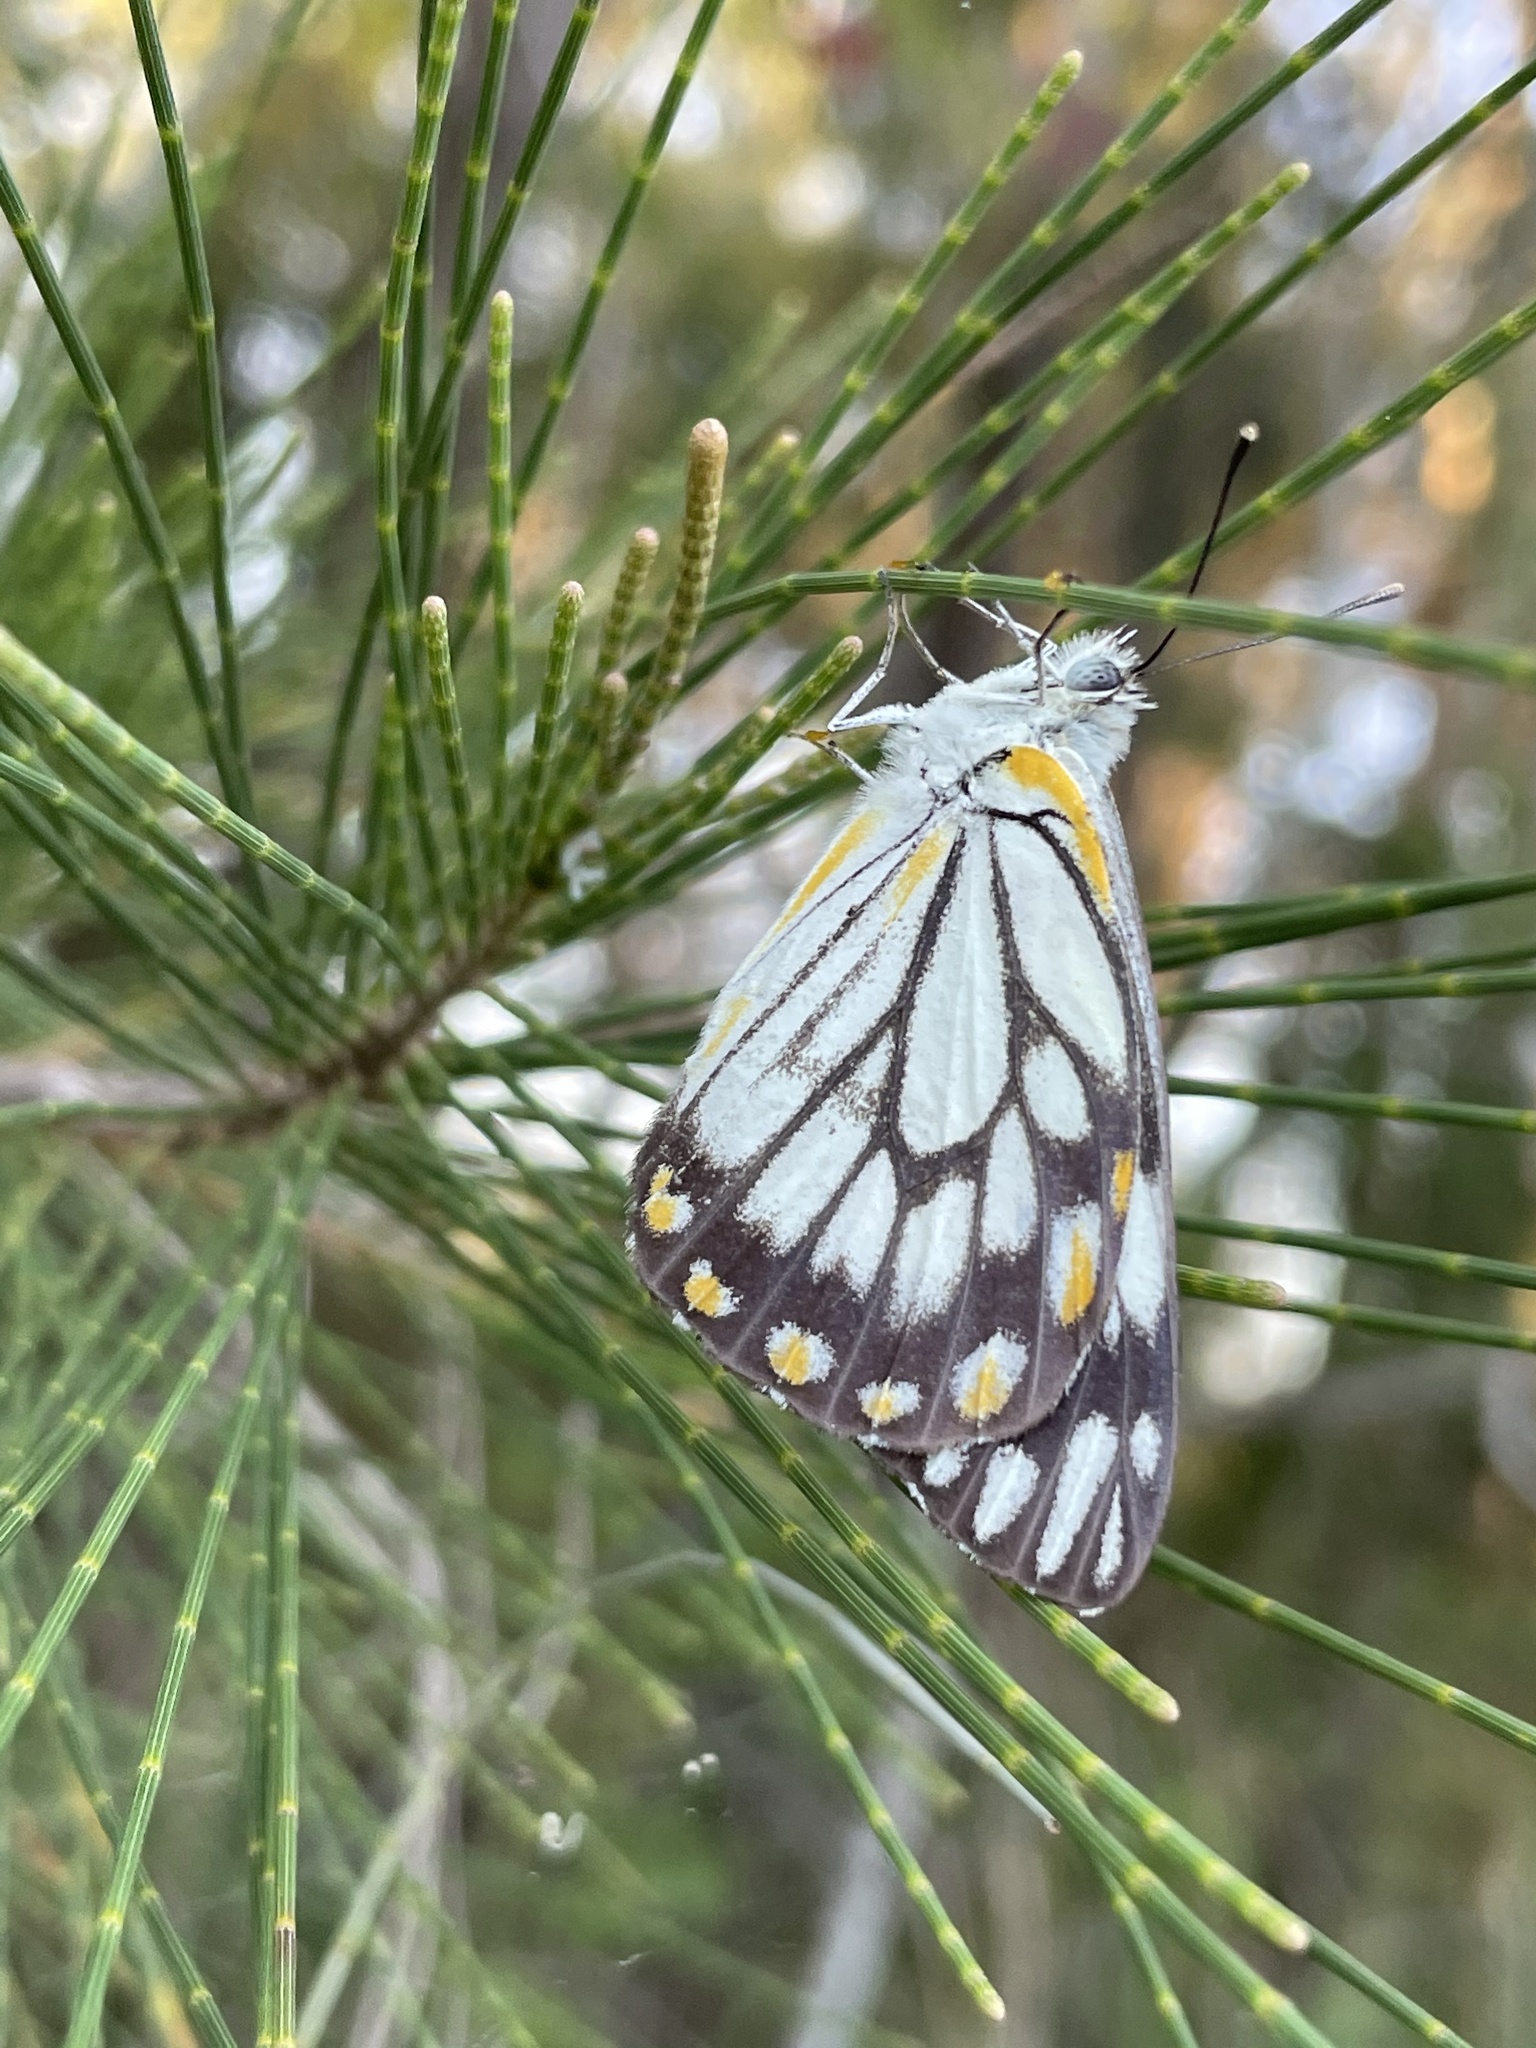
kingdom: Animalia
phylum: Arthropoda
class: Insecta
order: Lepidoptera
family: Pieridae
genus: Belenois
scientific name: Belenois java
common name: Caper white
